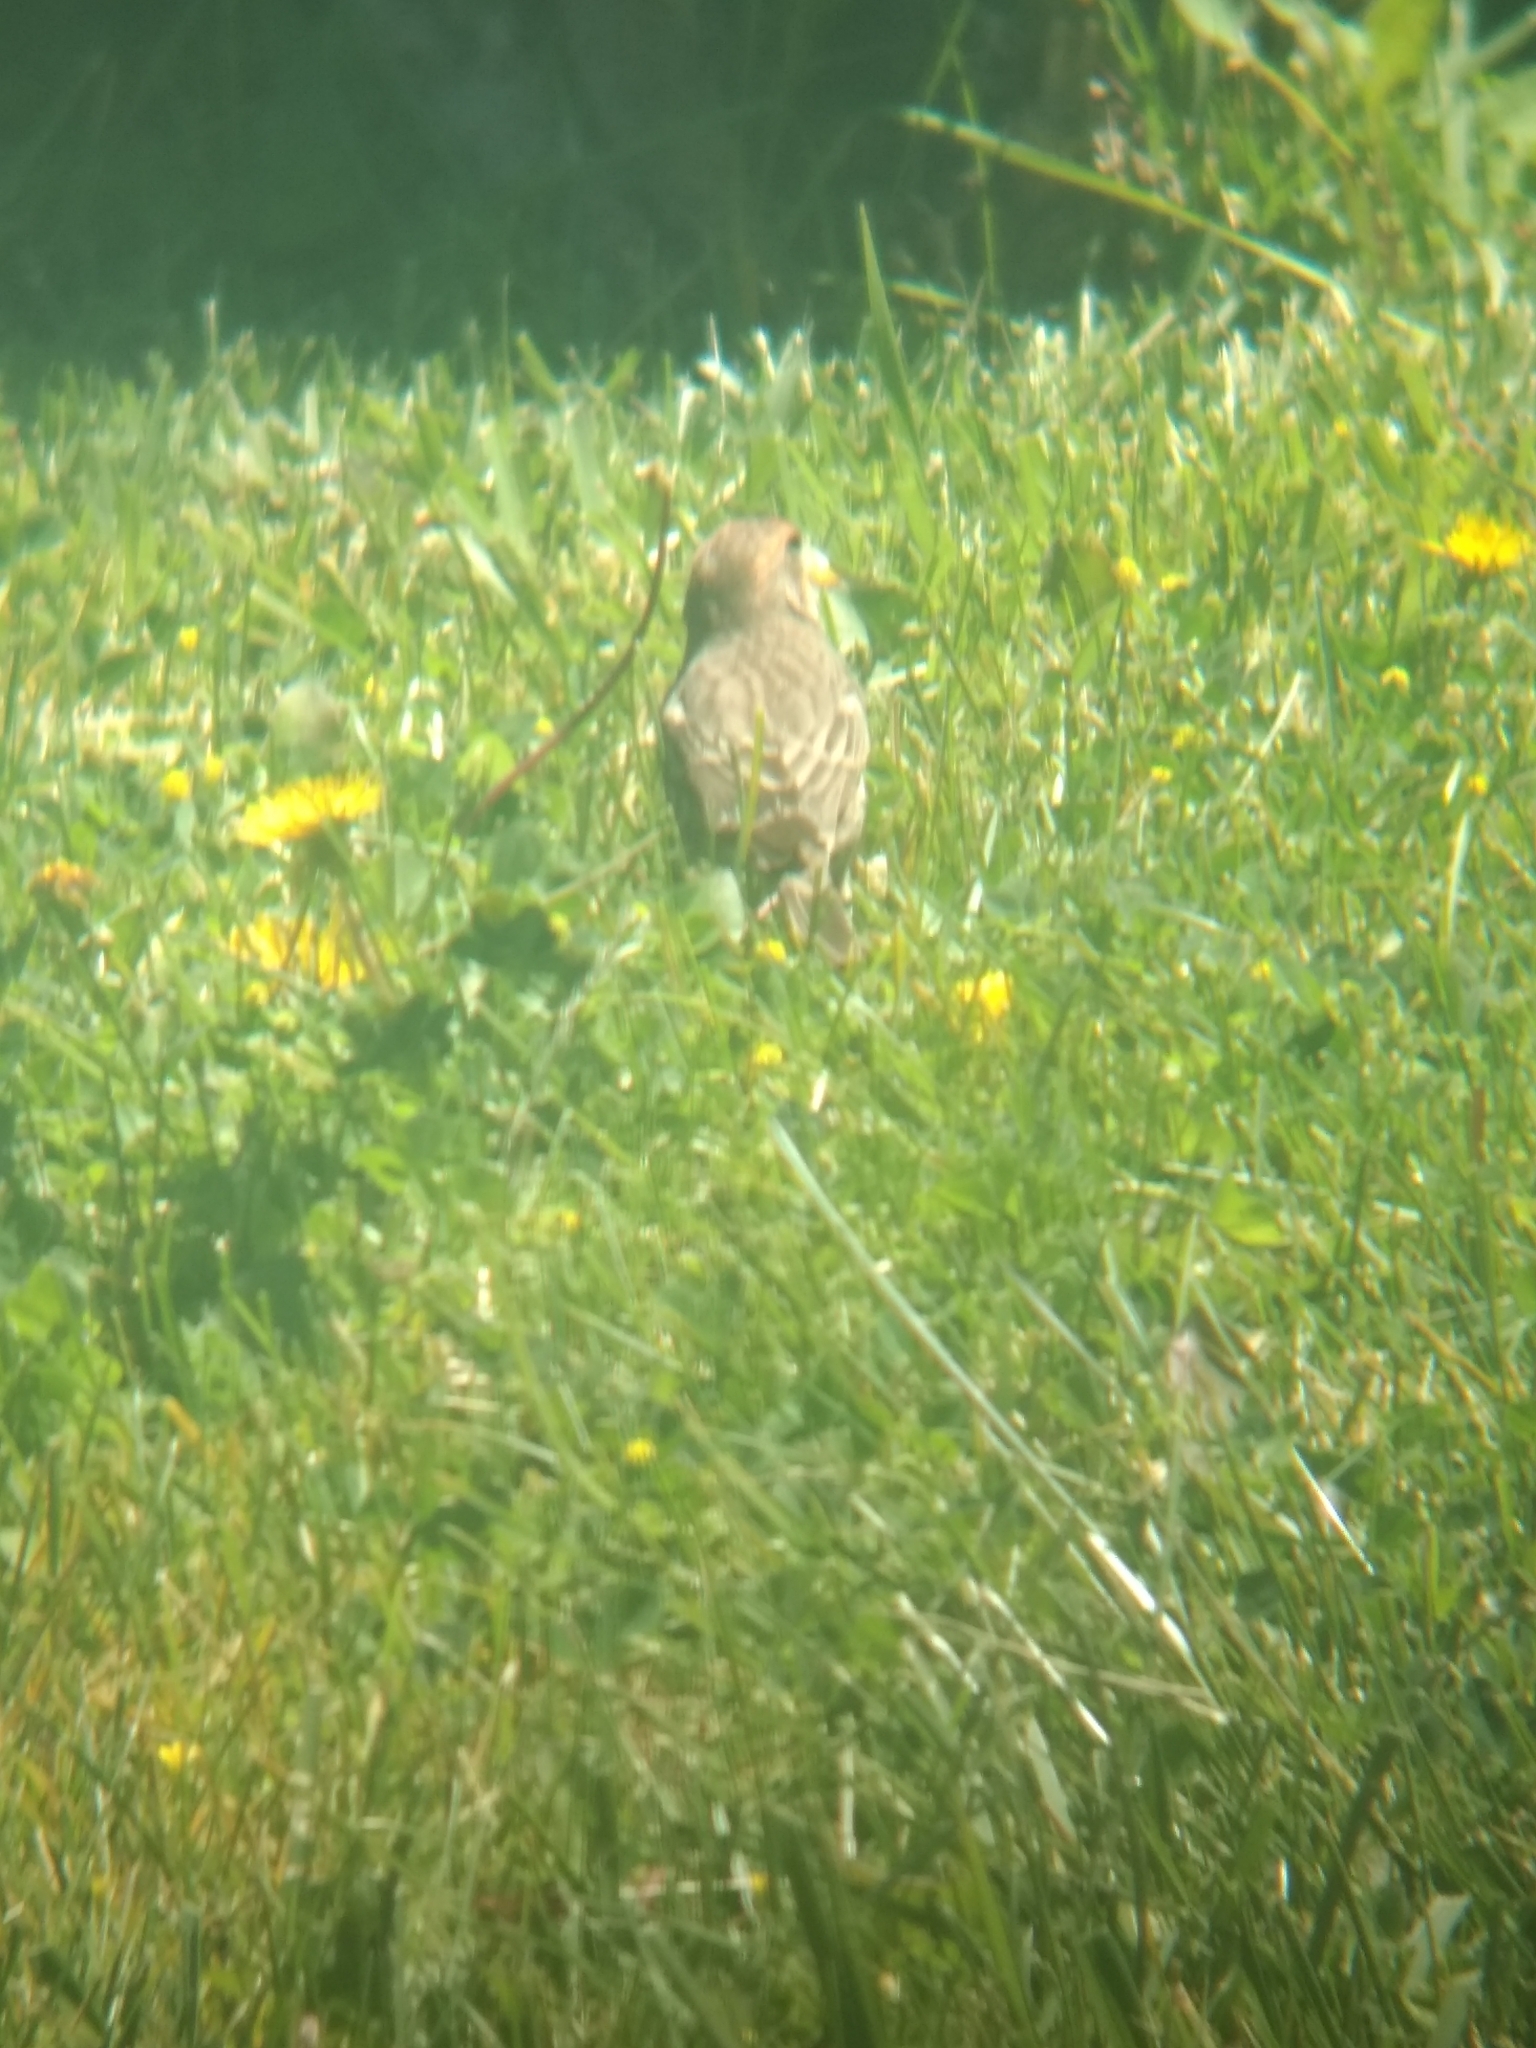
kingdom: Animalia
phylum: Chordata
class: Aves
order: Passeriformes
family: Fringillidae
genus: Haemorhous
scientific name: Haemorhous mexicanus
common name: House finch
